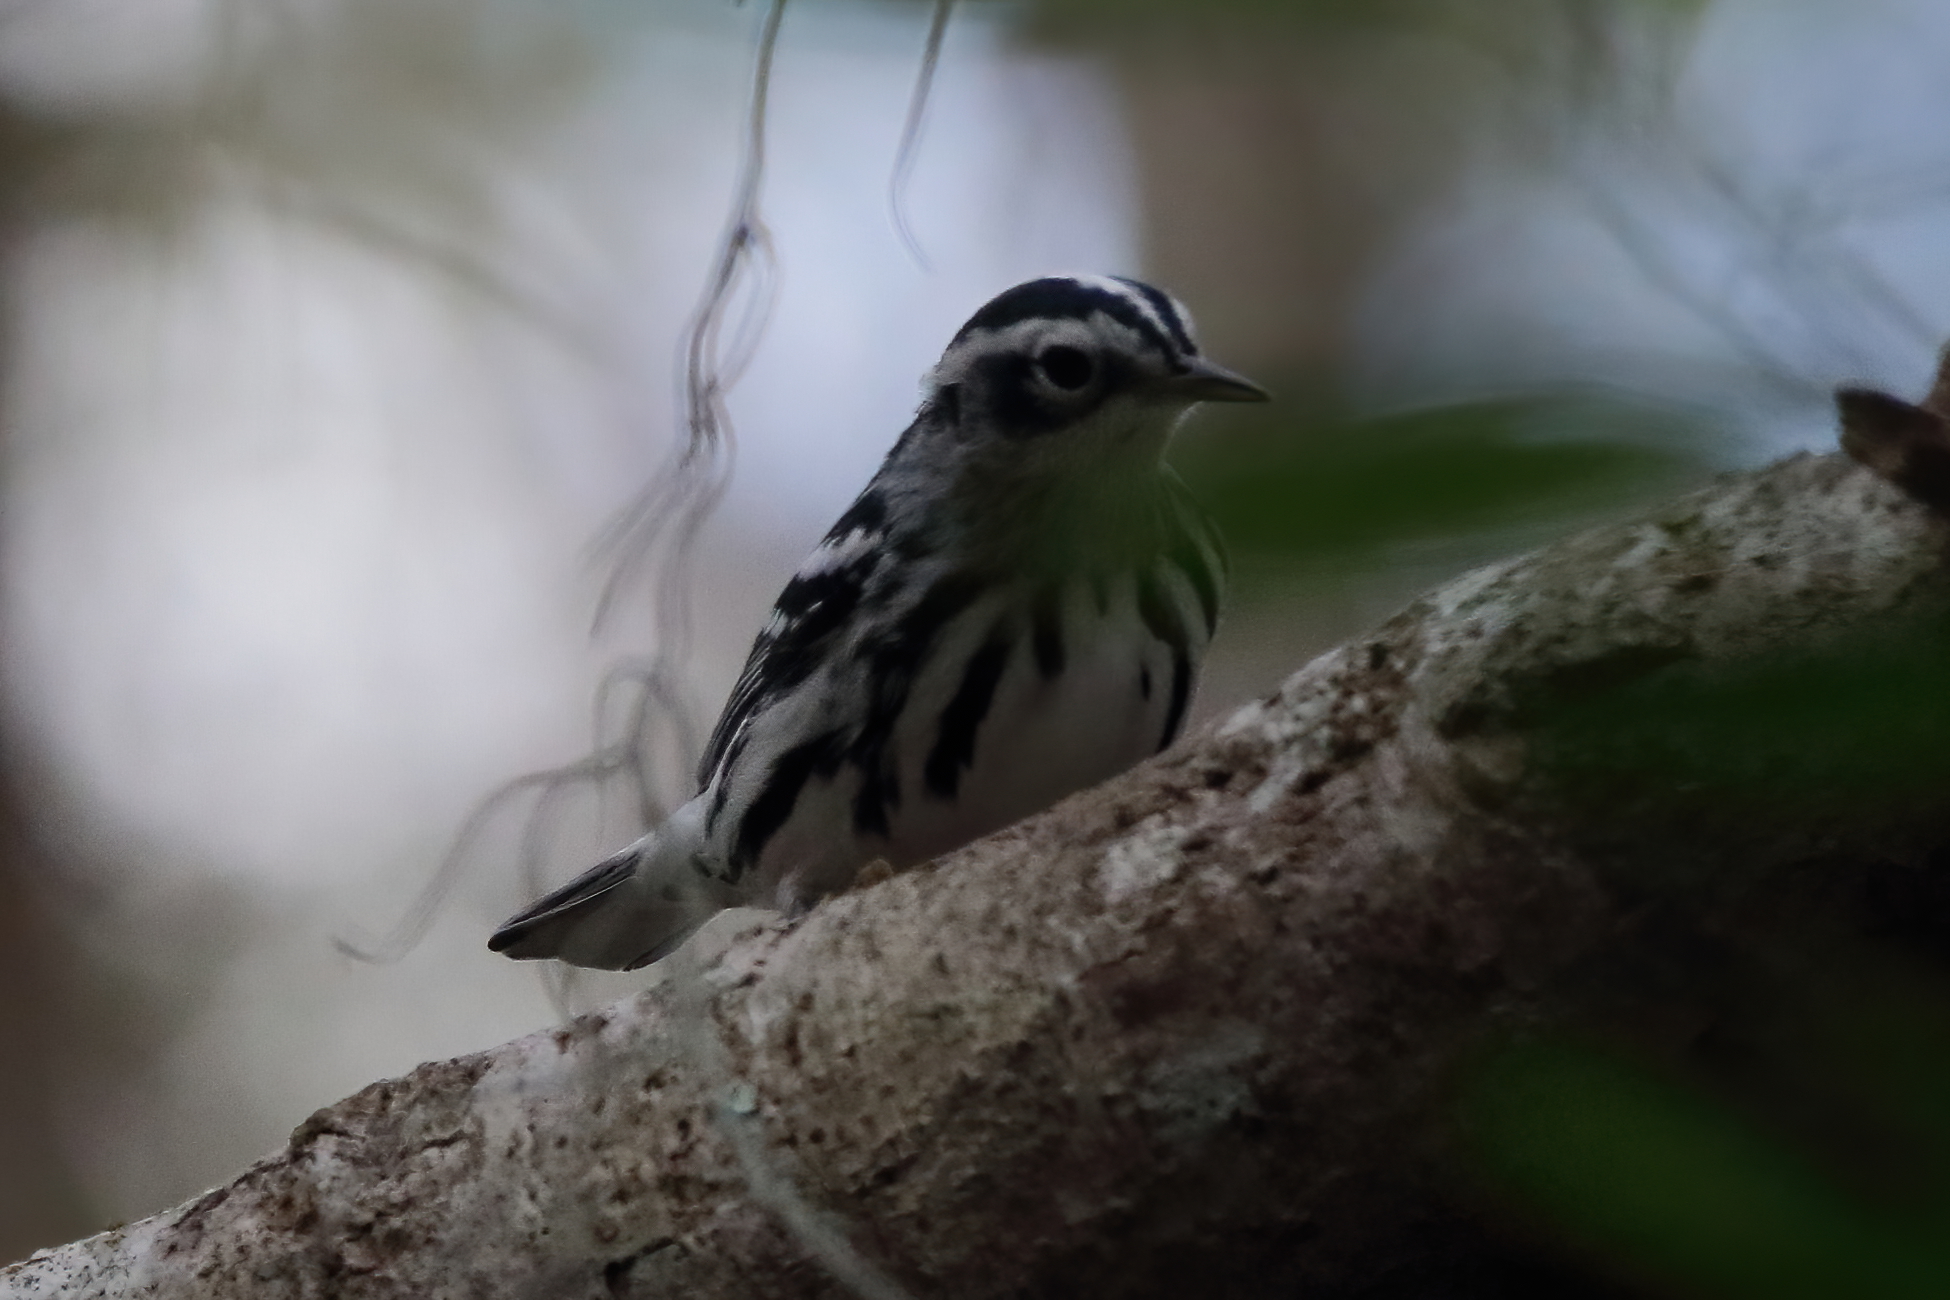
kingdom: Animalia
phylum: Chordata
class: Aves
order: Passeriformes
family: Parulidae
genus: Mniotilta
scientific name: Mniotilta varia
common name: Black-and-white warbler
